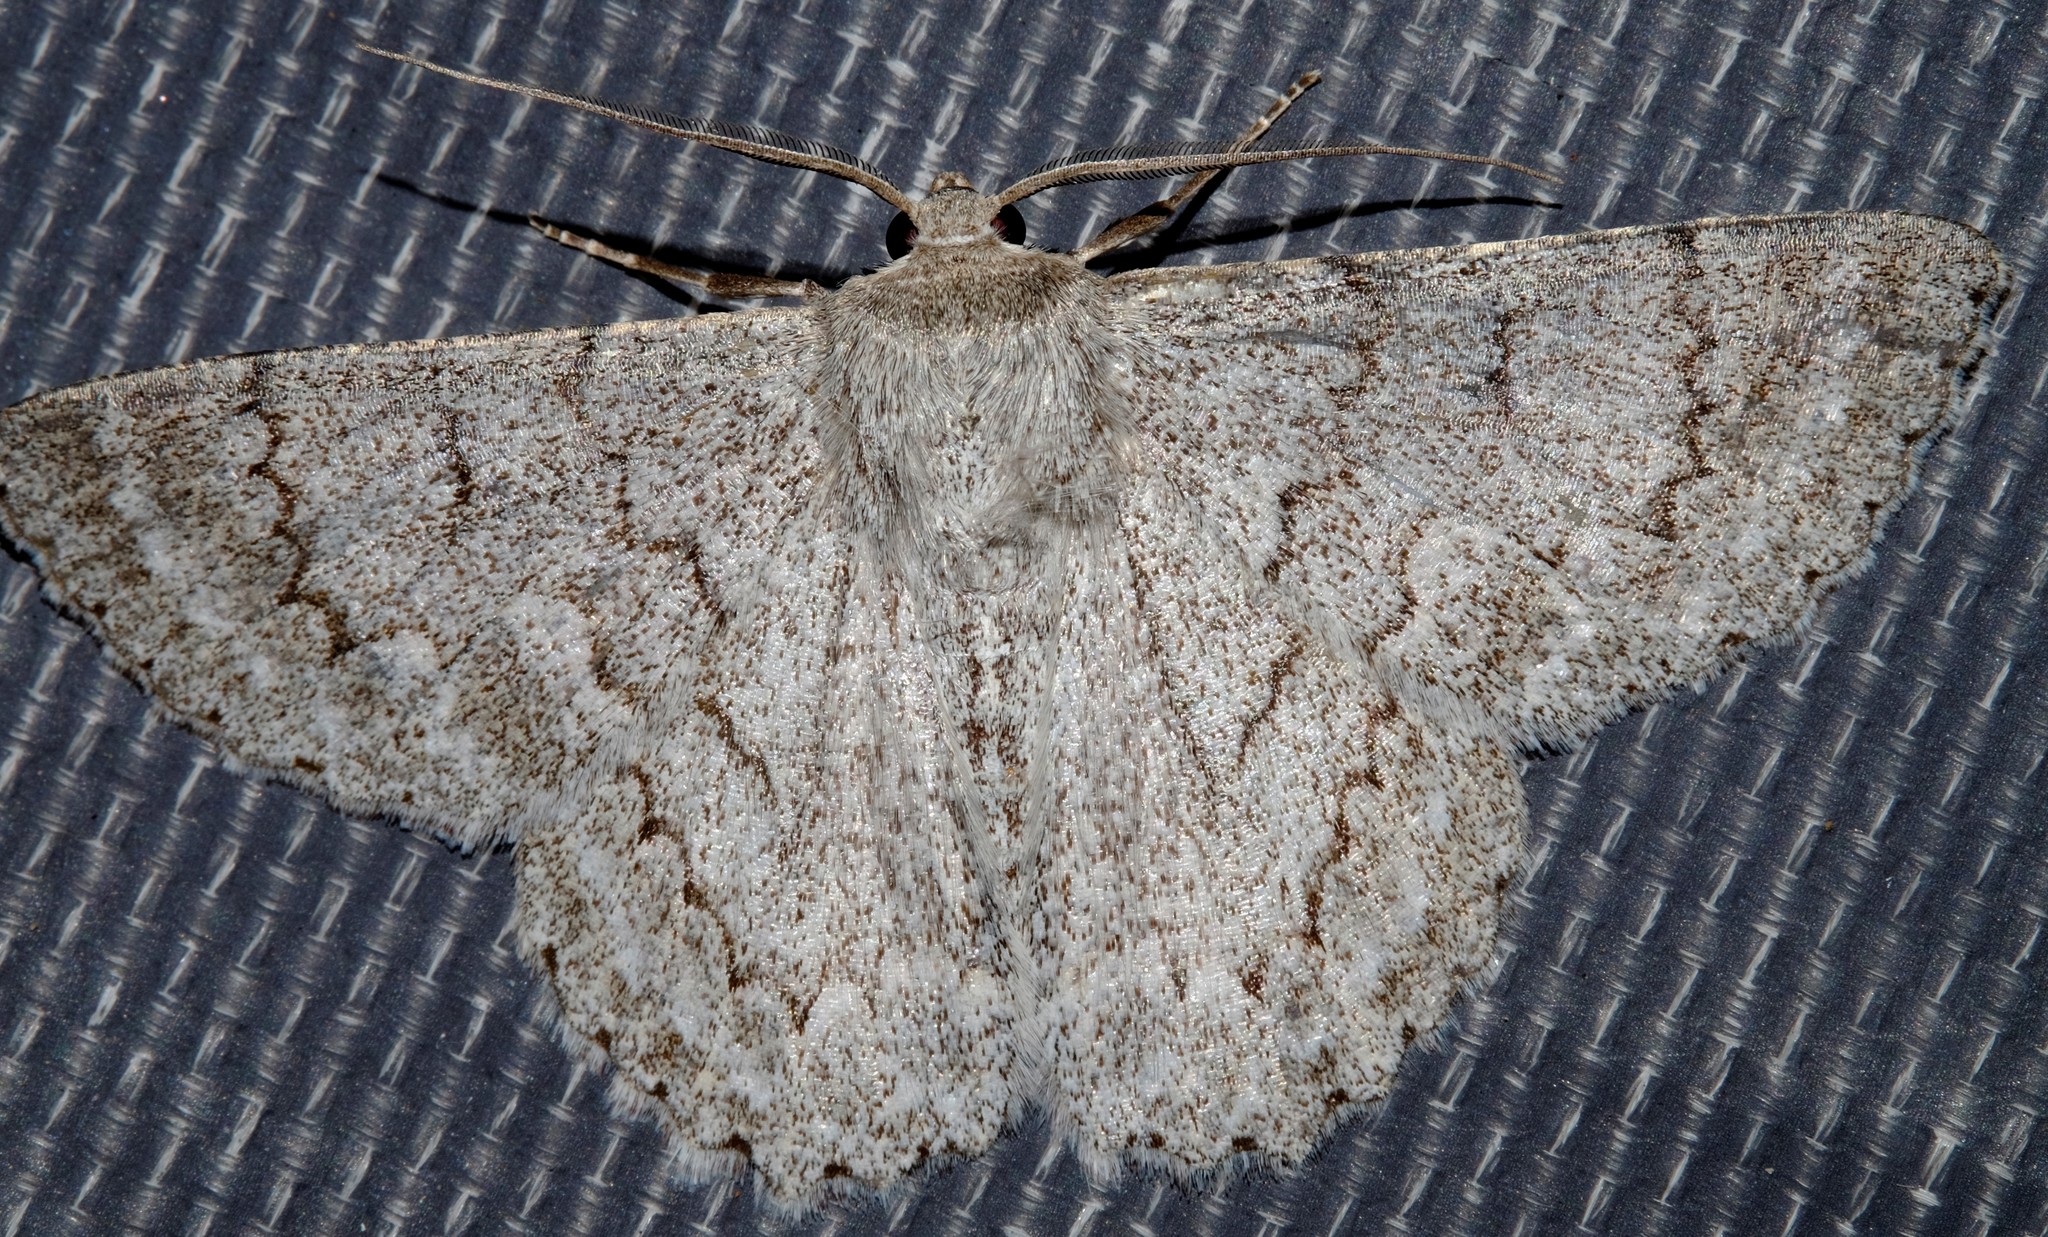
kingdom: Animalia
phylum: Arthropoda
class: Insecta
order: Lepidoptera
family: Geometridae
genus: Crypsiphona
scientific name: Crypsiphona ocultaria
